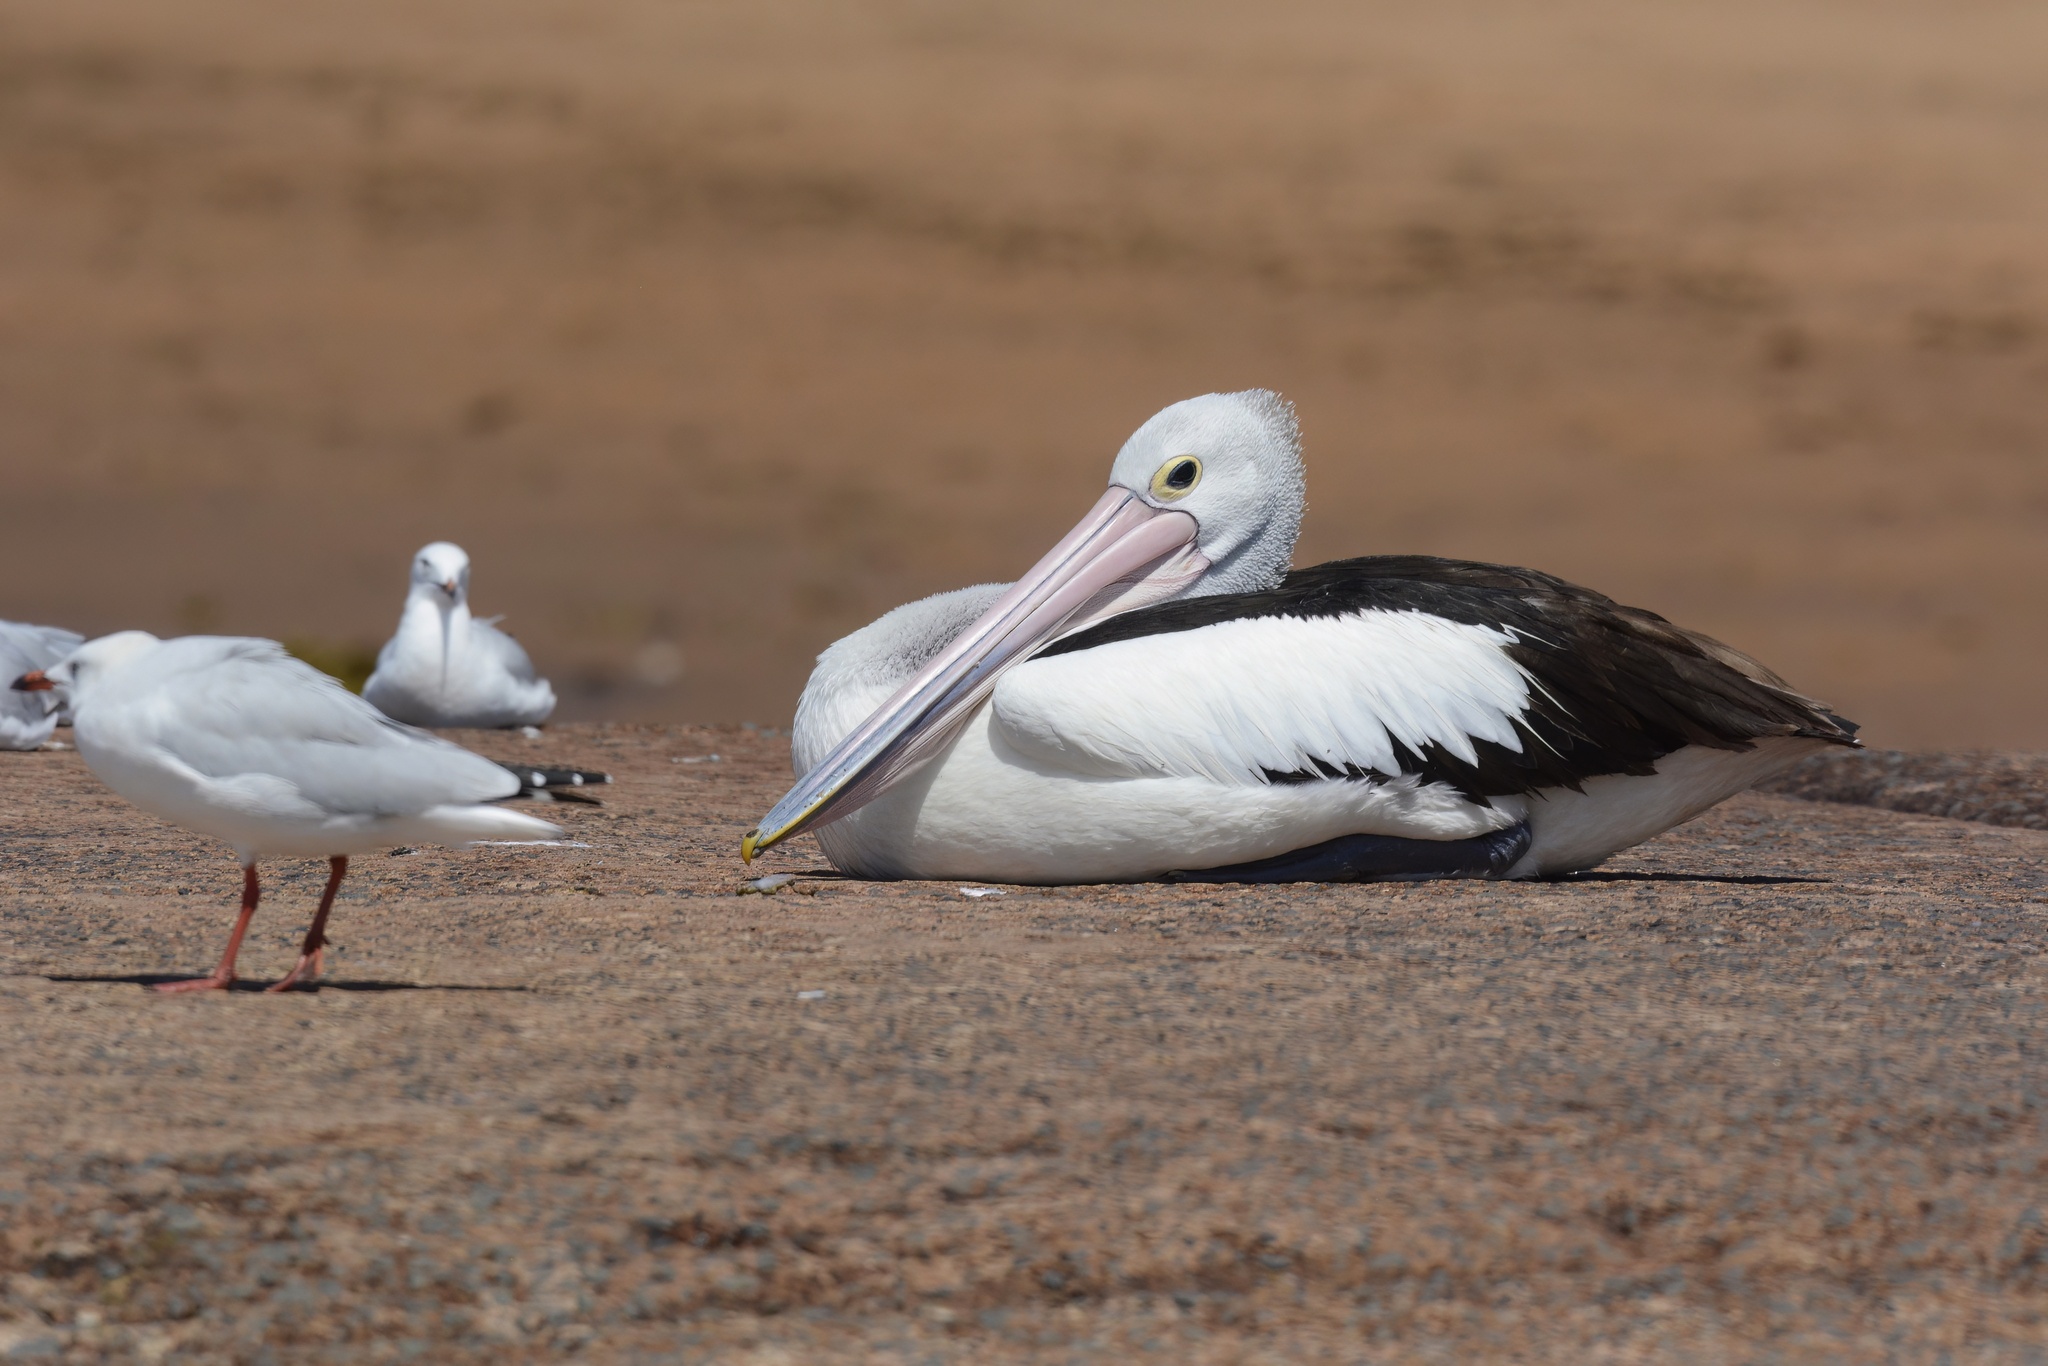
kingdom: Animalia
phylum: Chordata
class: Aves
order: Pelecaniformes
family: Pelecanidae
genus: Pelecanus
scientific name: Pelecanus conspicillatus
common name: Australian pelican
